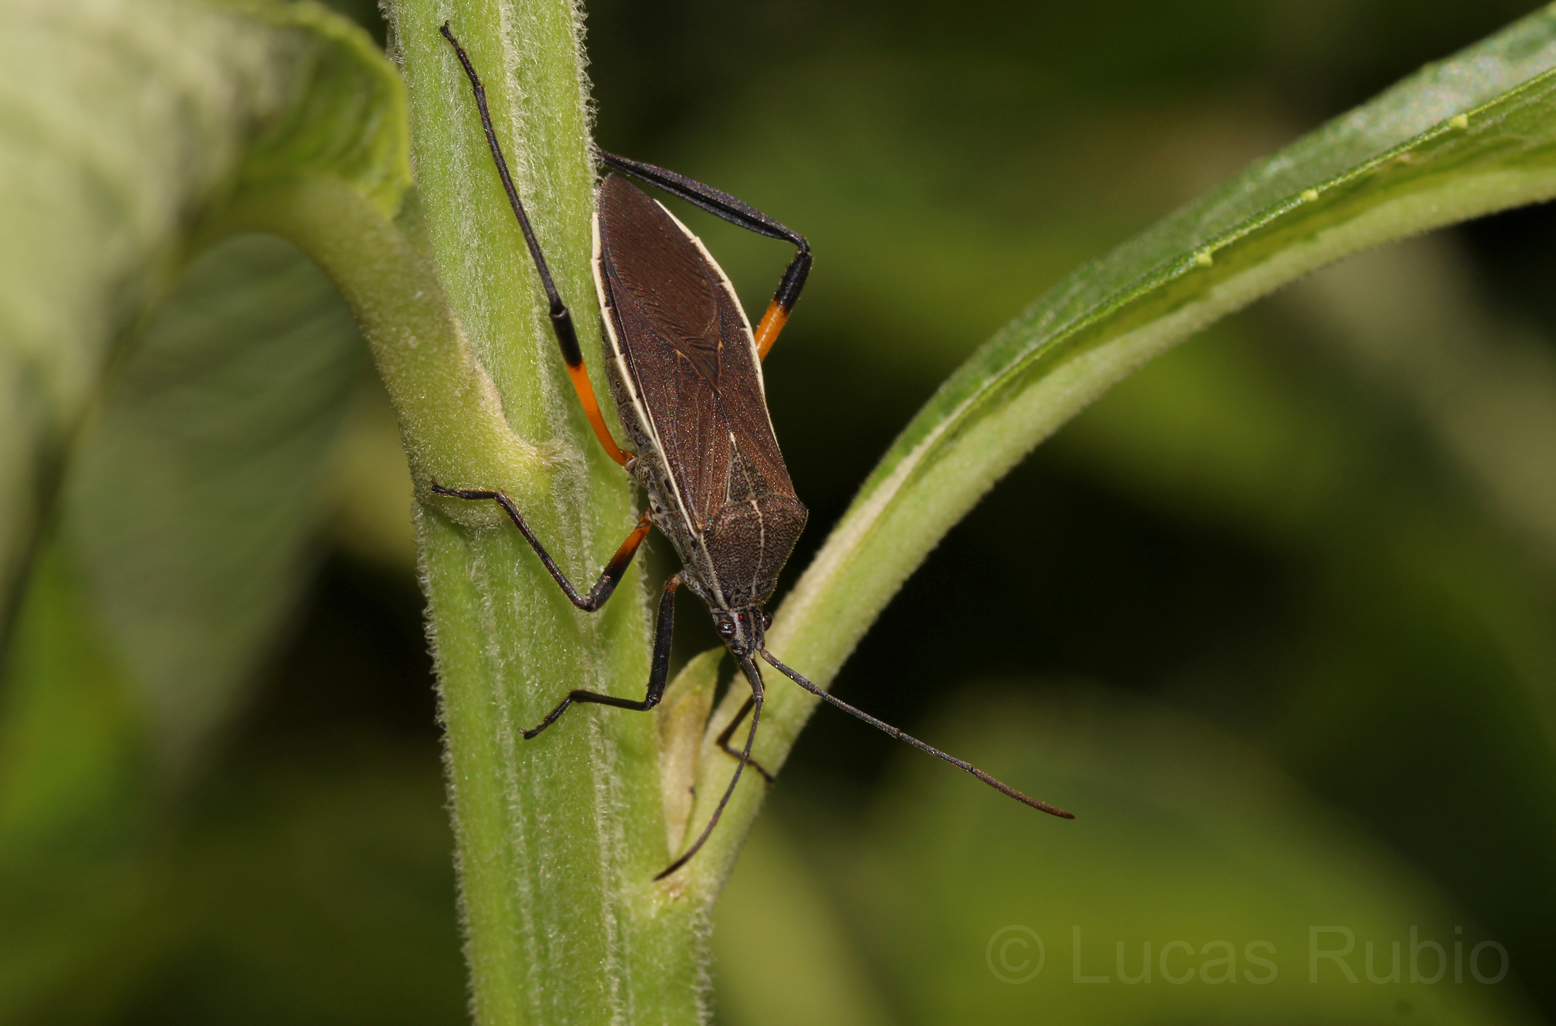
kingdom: Animalia
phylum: Arthropoda
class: Insecta
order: Hemiptera
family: Coreidae
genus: Plaxiscelis
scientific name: Plaxiscelis limbata
